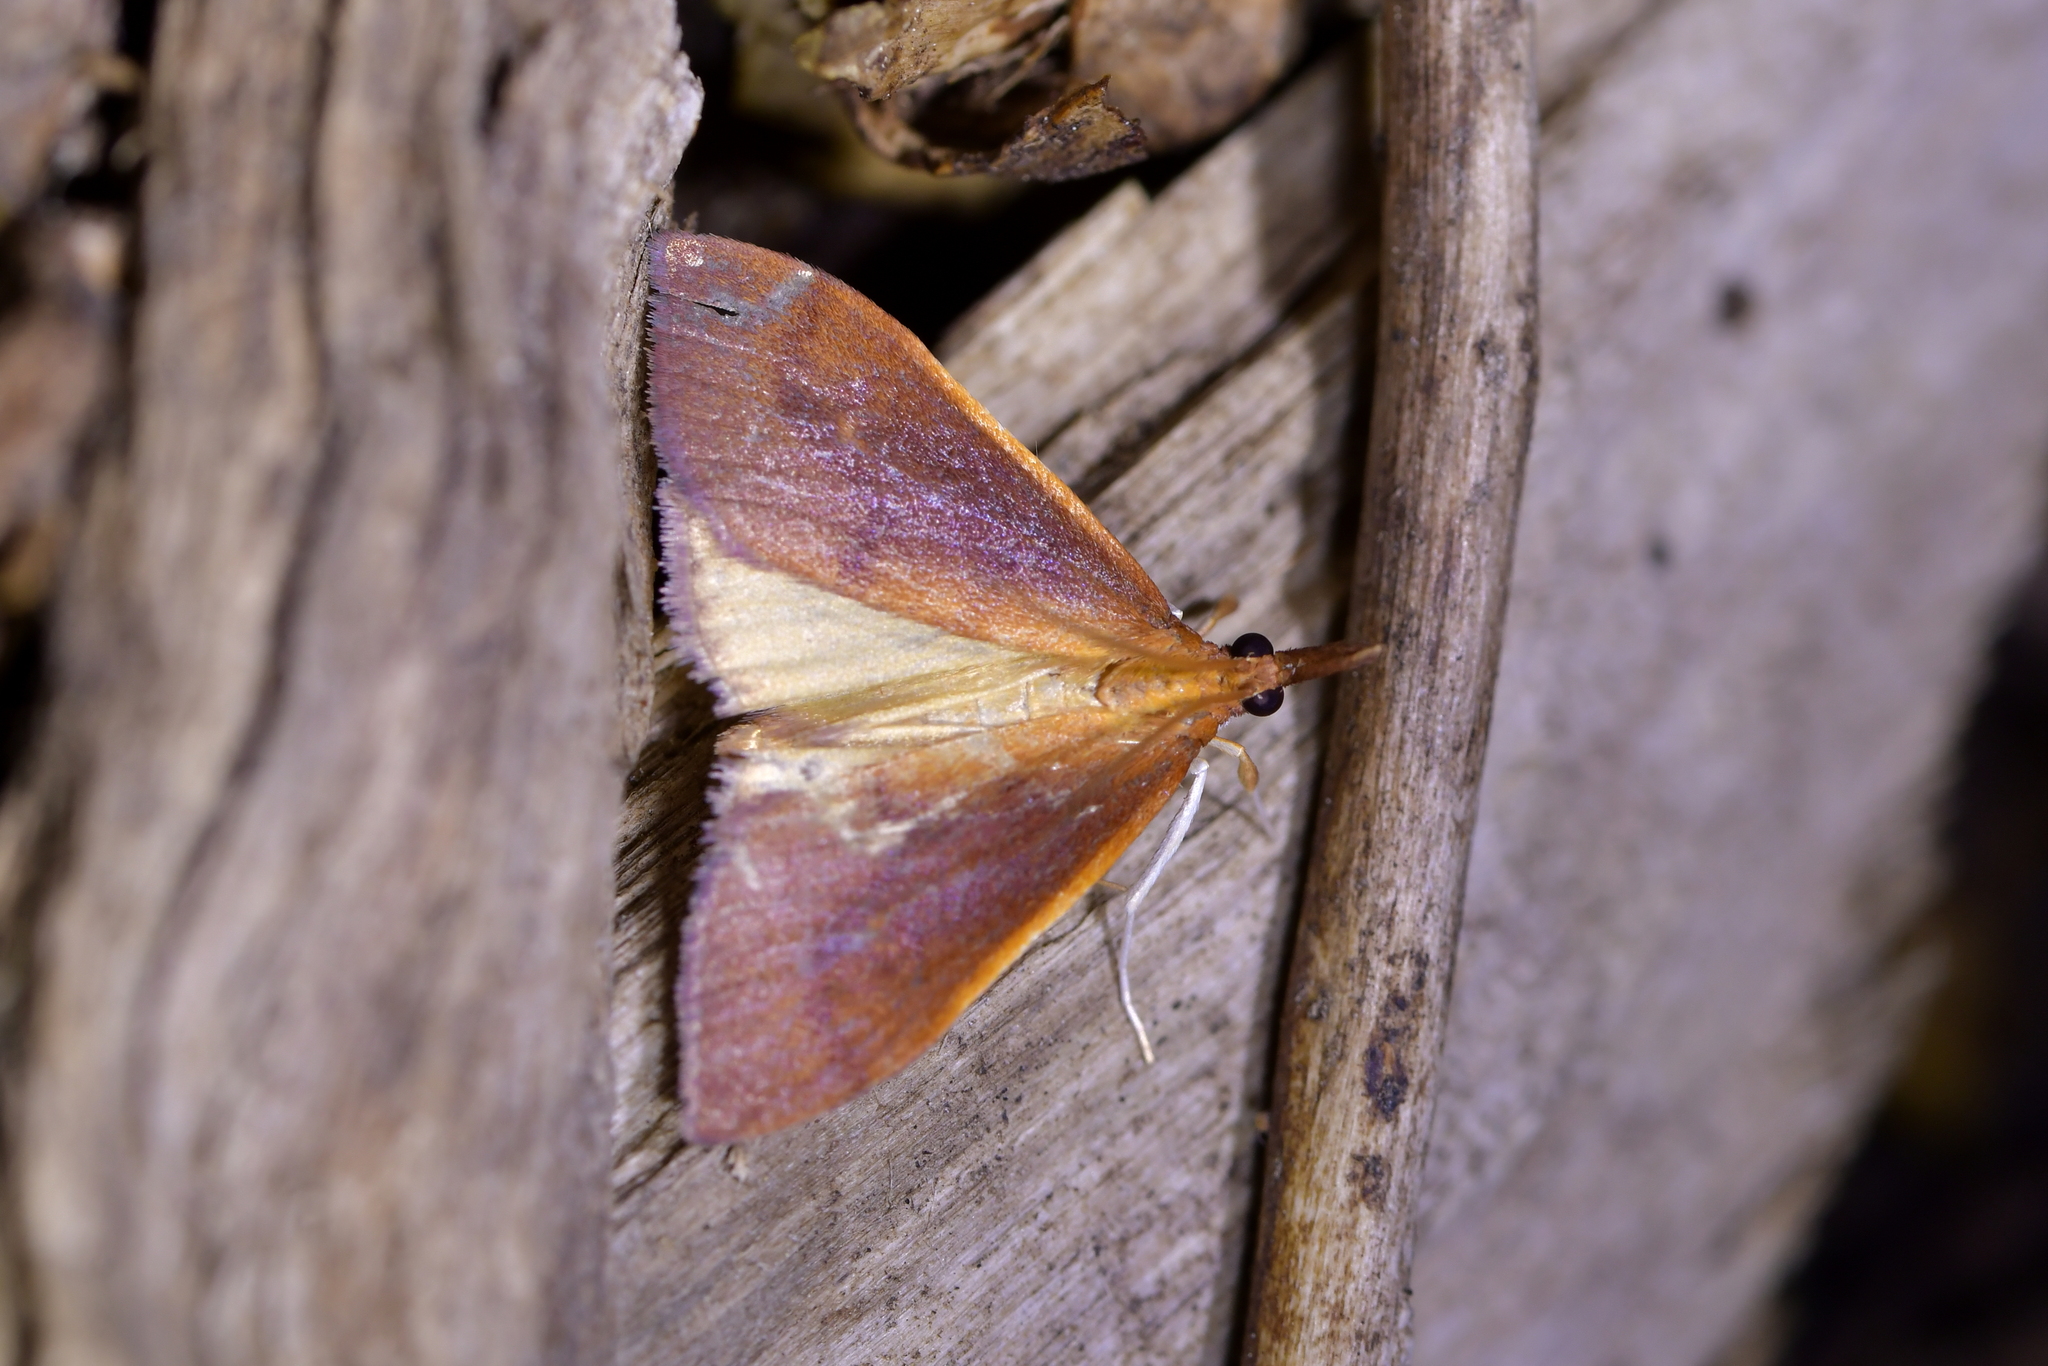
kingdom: Animalia
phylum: Arthropoda
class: Insecta
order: Lepidoptera
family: Crambidae
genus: Udea
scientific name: Udea daiclesalis
